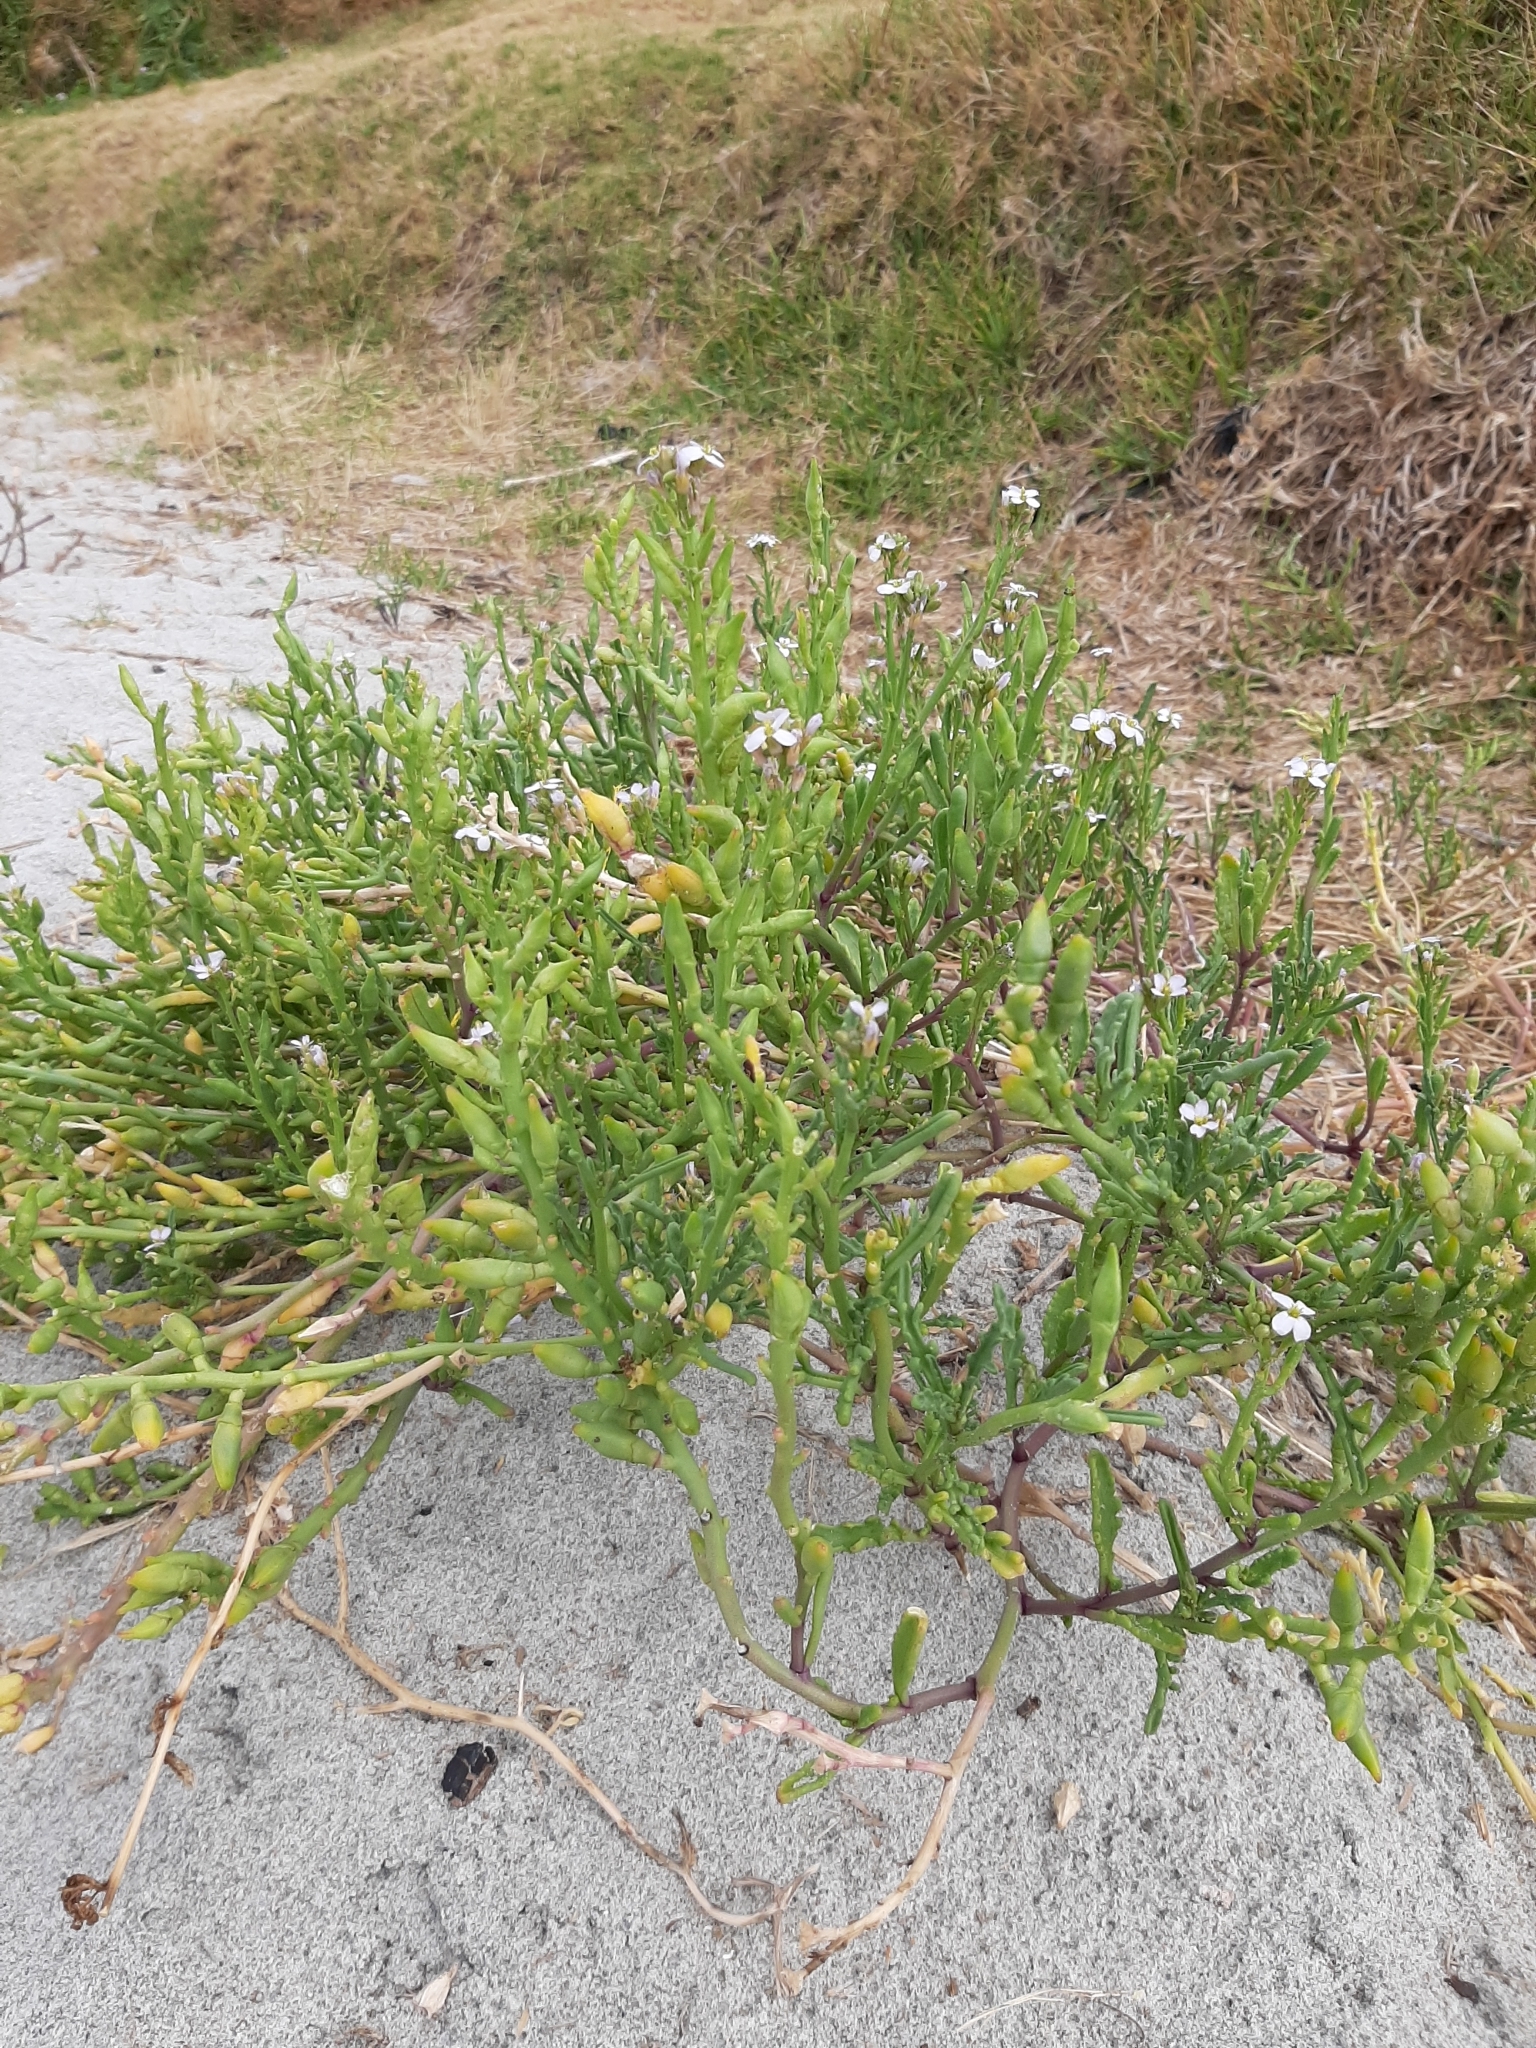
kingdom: Plantae
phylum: Tracheophyta
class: Magnoliopsida
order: Brassicales
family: Brassicaceae
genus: Cakile
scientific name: Cakile edentula
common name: American sea rocket
